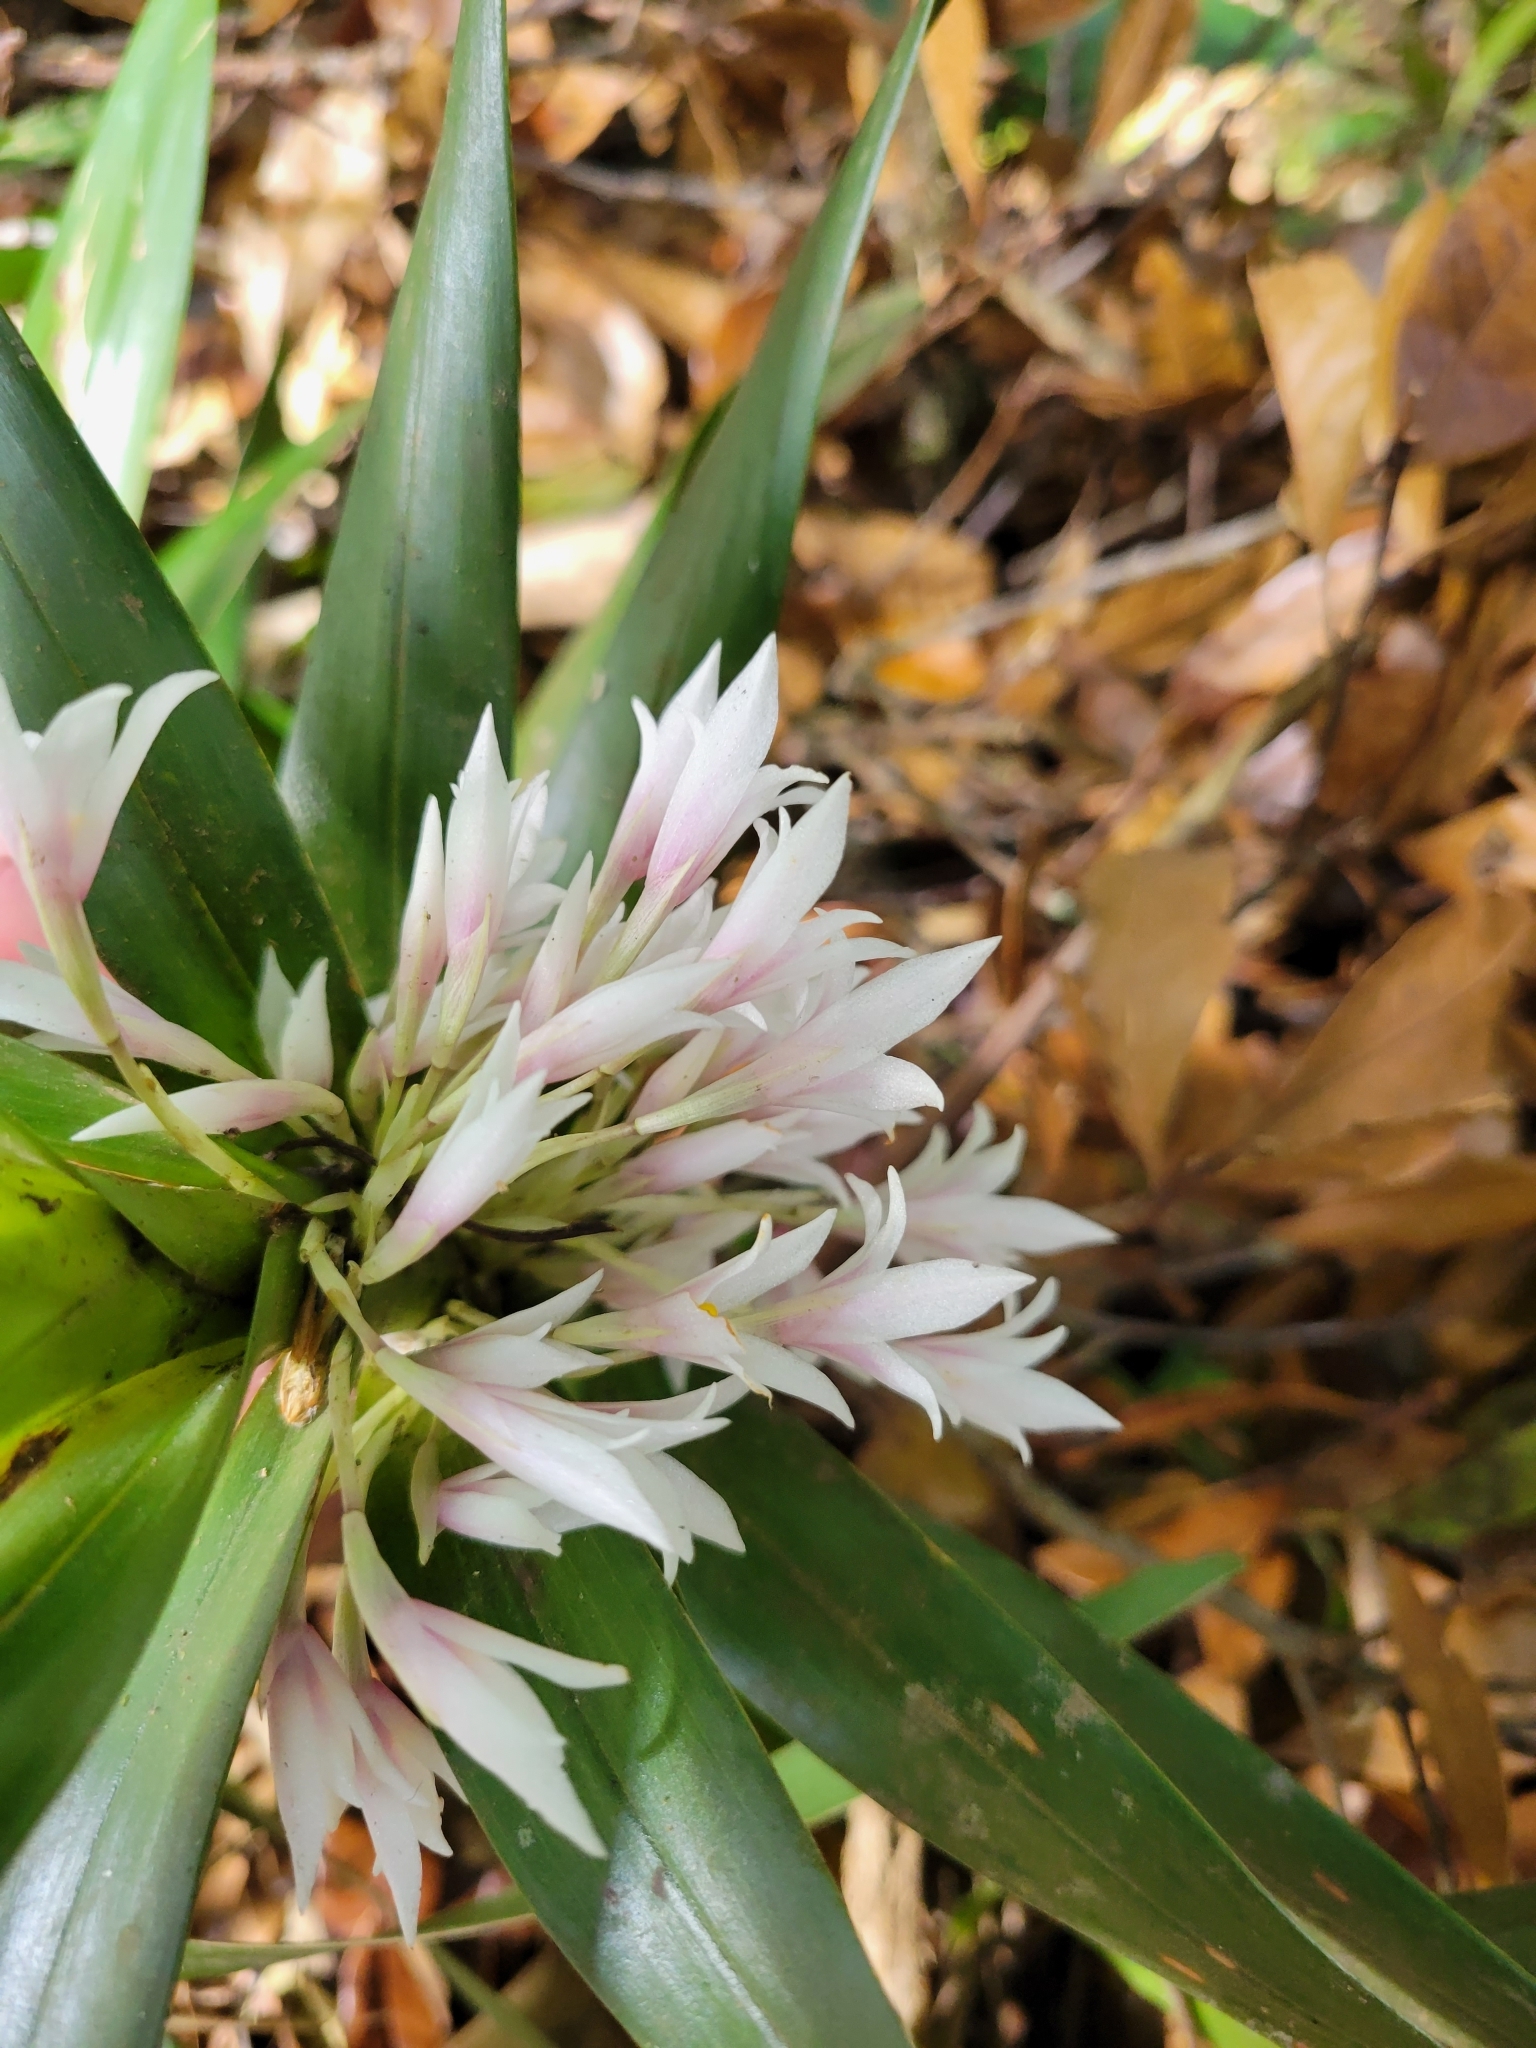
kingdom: Plantae
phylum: Tracheophyta
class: Liliopsida
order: Asparagales
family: Orchidaceae
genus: Maxillaria
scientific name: Maxillaria monteverdensis
